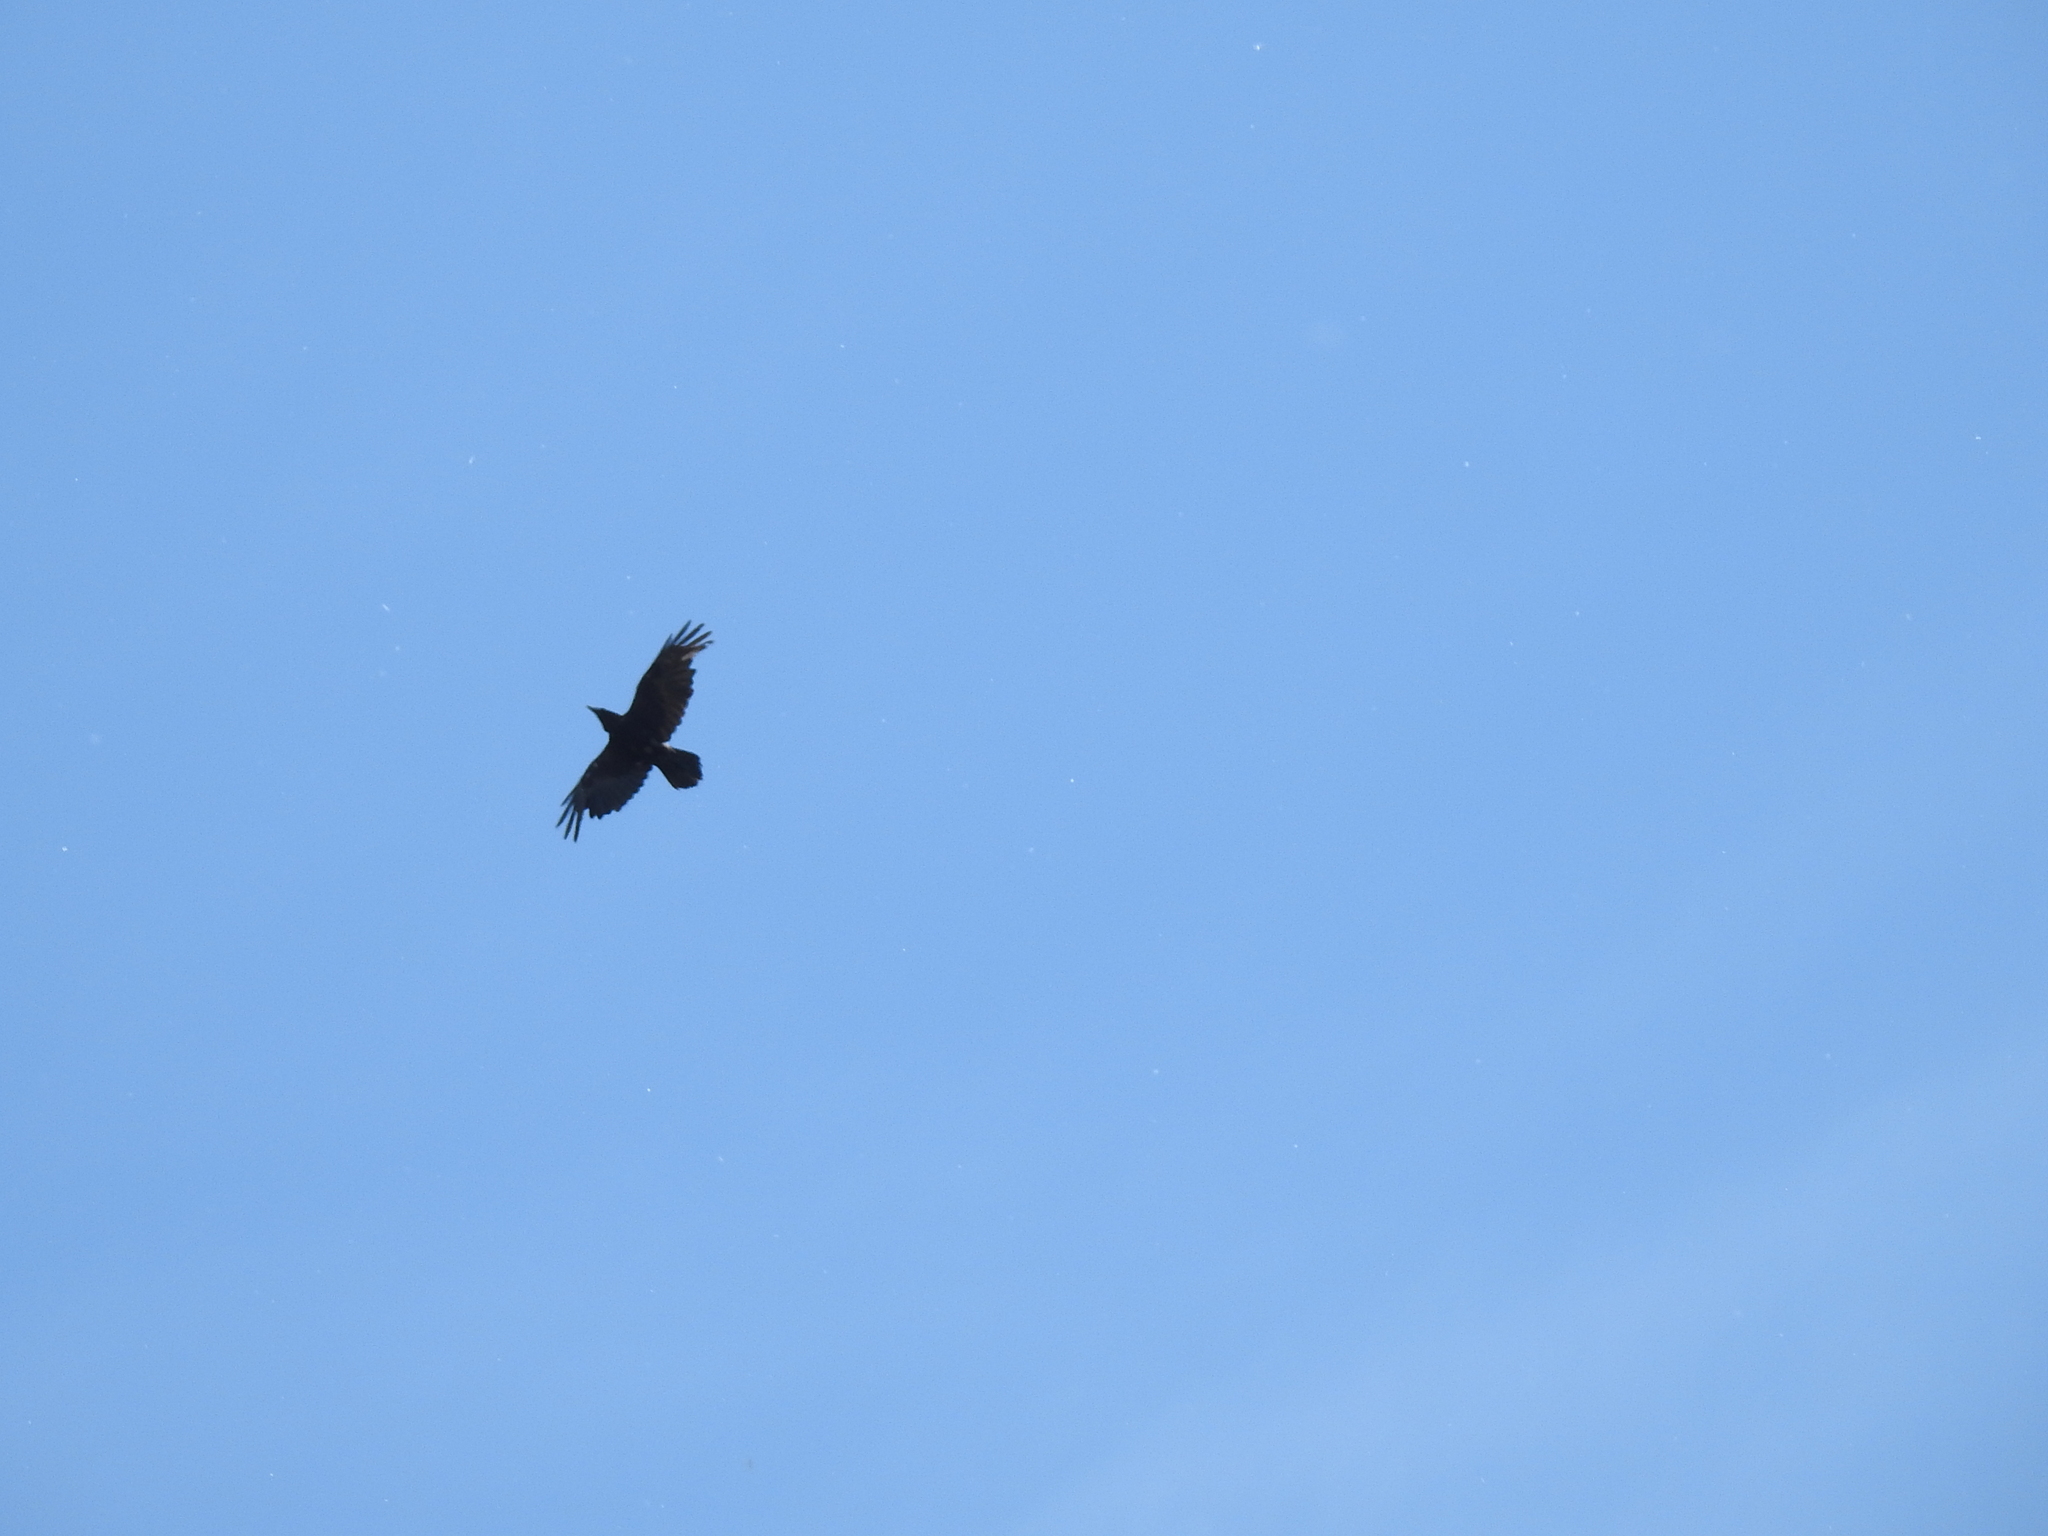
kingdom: Animalia
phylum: Chordata
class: Aves
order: Passeriformes
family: Corvidae
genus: Corvus
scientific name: Corvus corax
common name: Common raven
